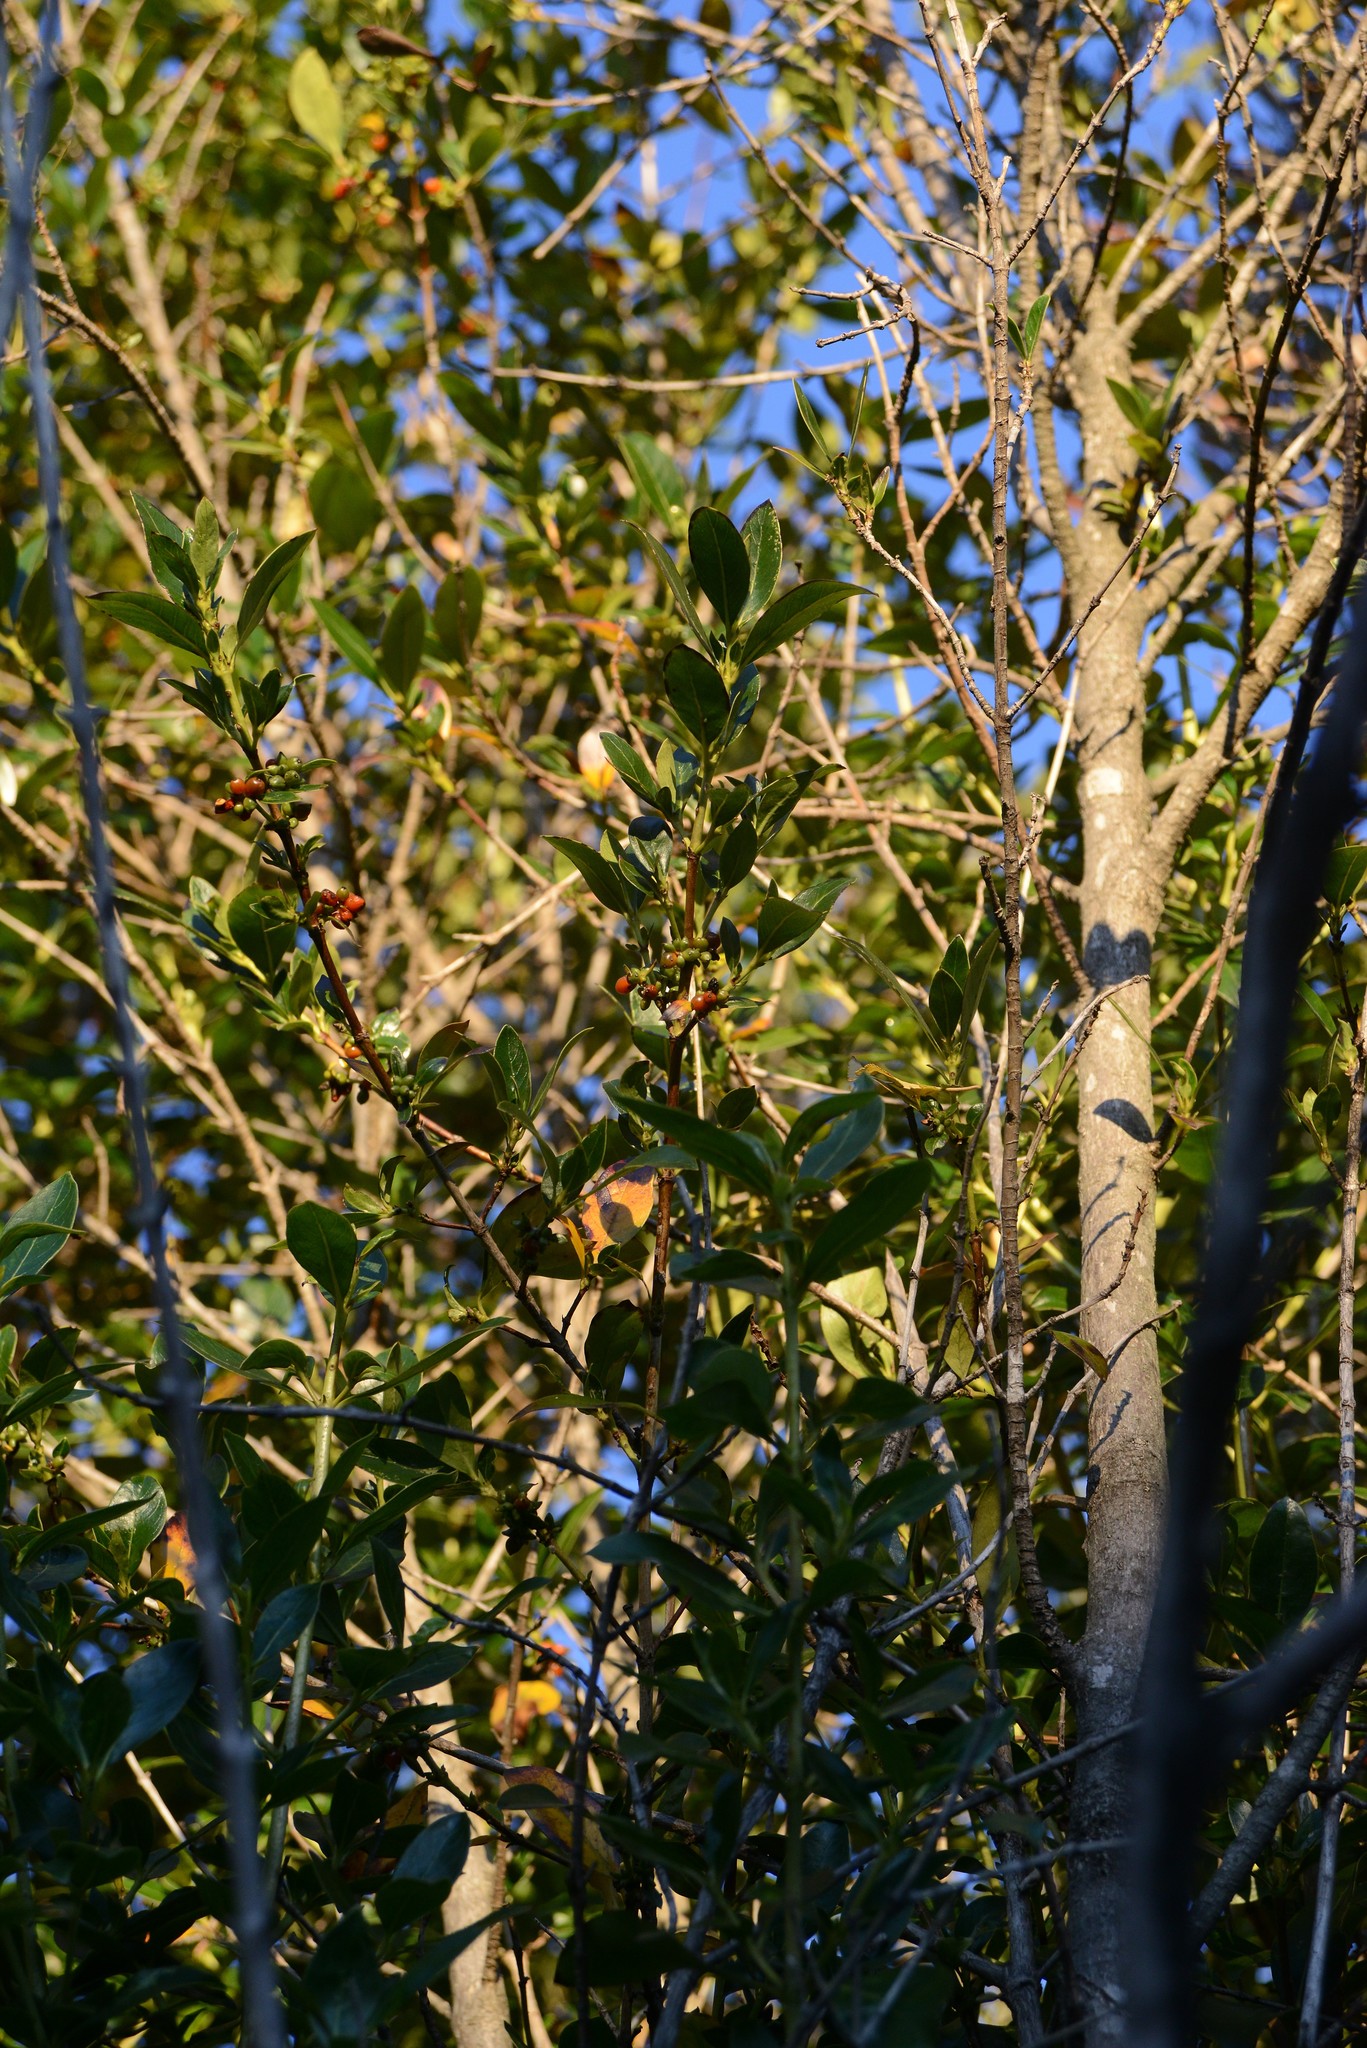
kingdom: Plantae
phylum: Tracheophyta
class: Magnoliopsida
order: Gentianales
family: Rubiaceae
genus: Coprosma
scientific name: Coprosma robusta
